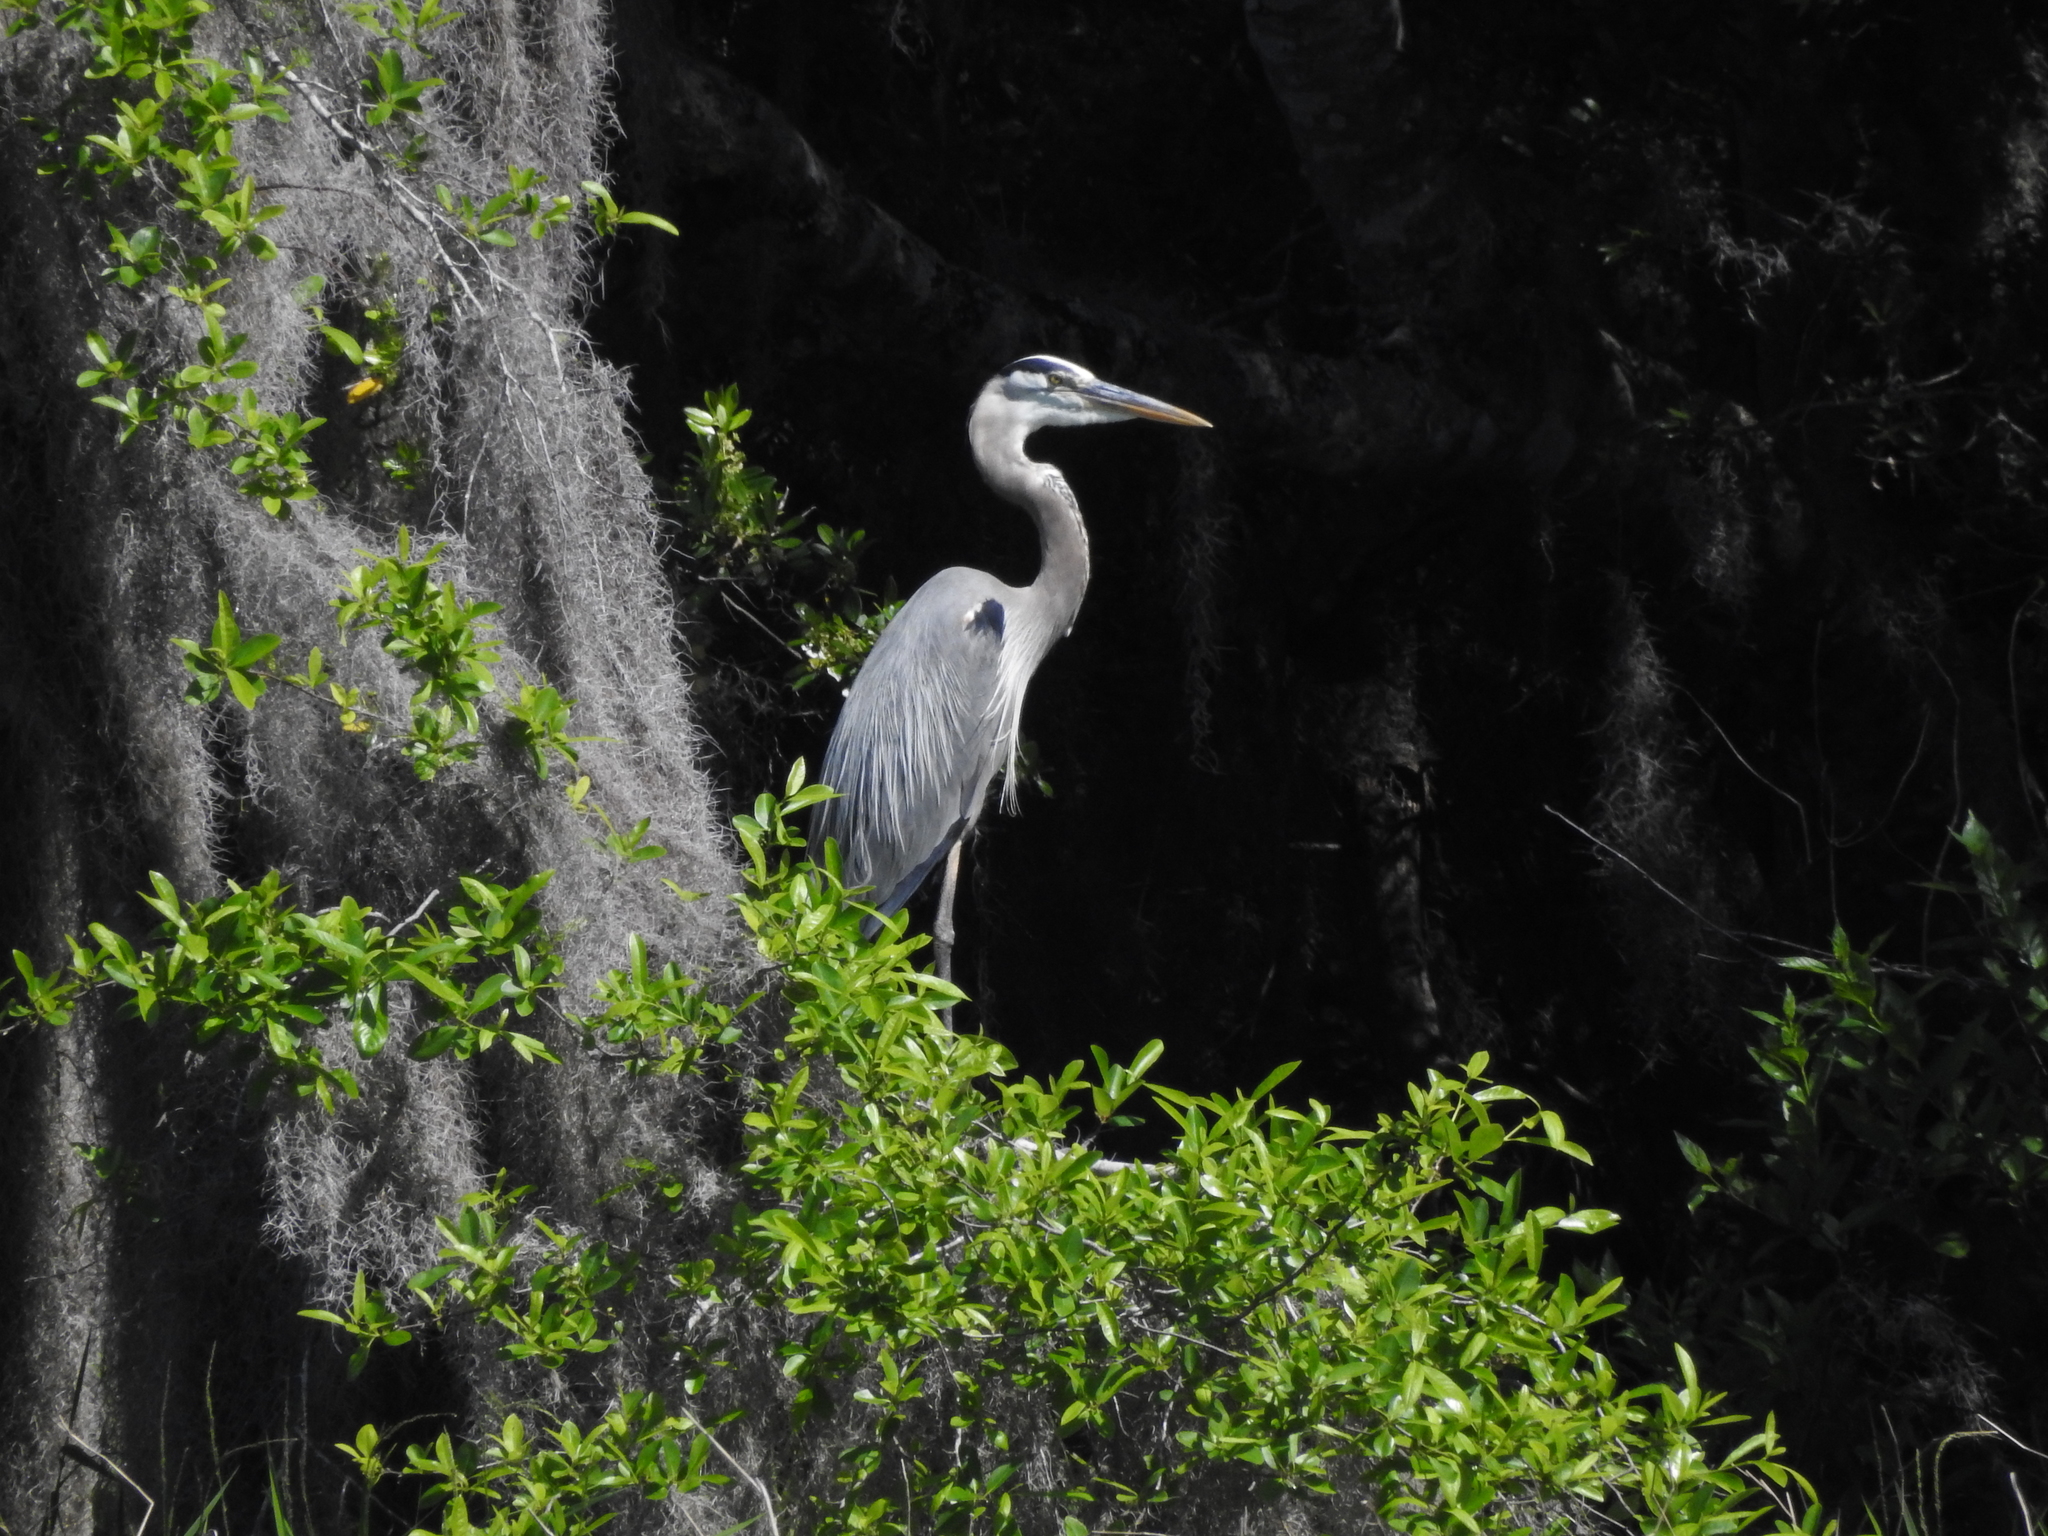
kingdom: Animalia
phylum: Chordata
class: Aves
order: Pelecaniformes
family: Ardeidae
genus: Ardea
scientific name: Ardea herodias
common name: Great blue heron
